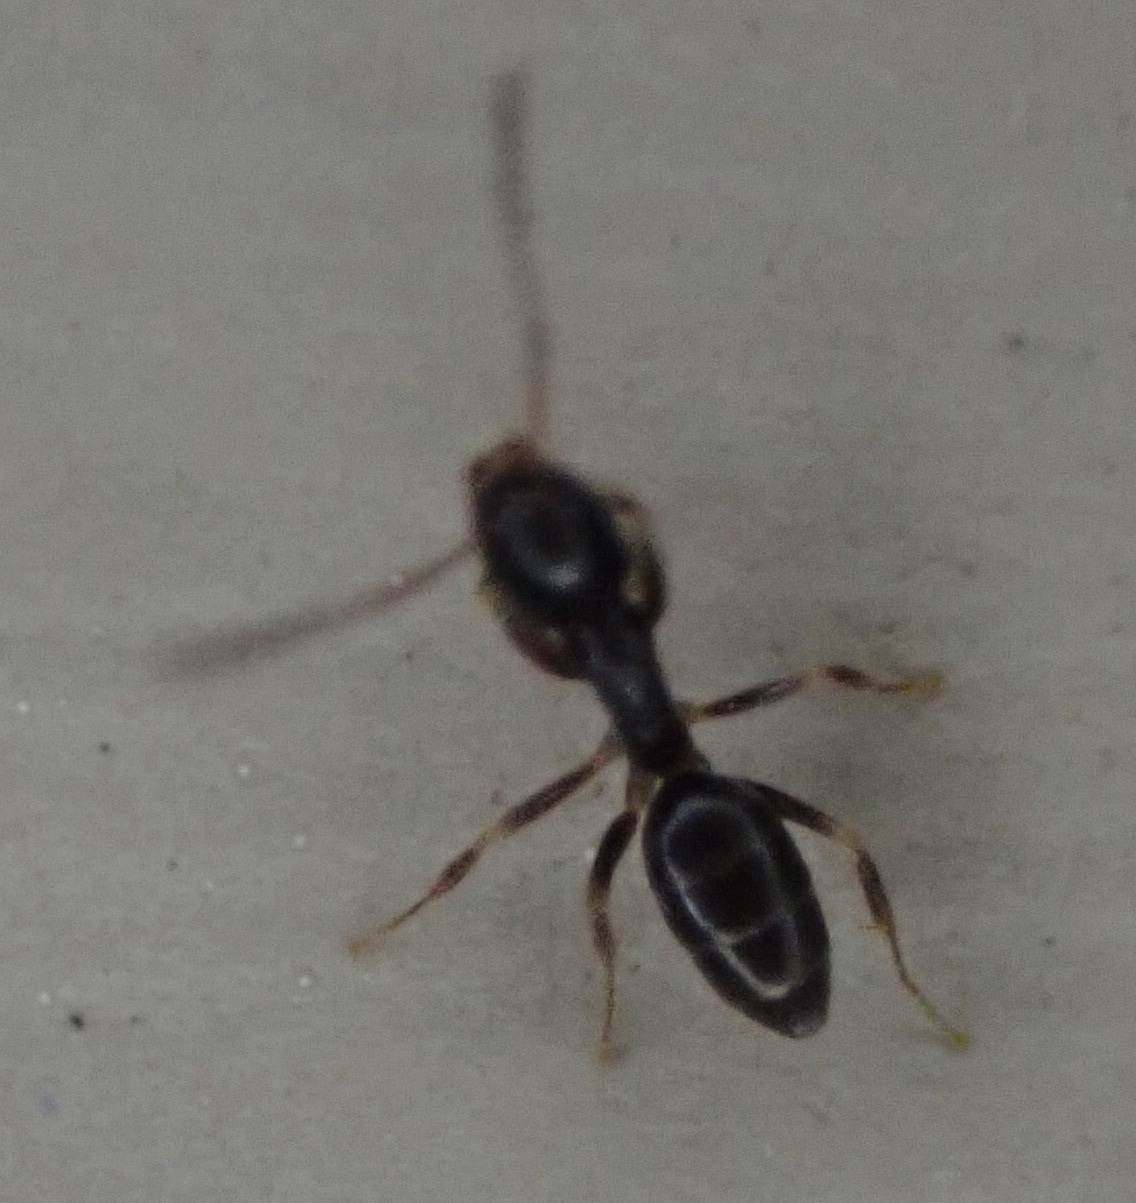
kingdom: Animalia
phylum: Arthropoda
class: Insecta
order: Hymenoptera
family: Formicidae
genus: Tapinoma
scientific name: Tapinoma sessile
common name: Odorous house ant
